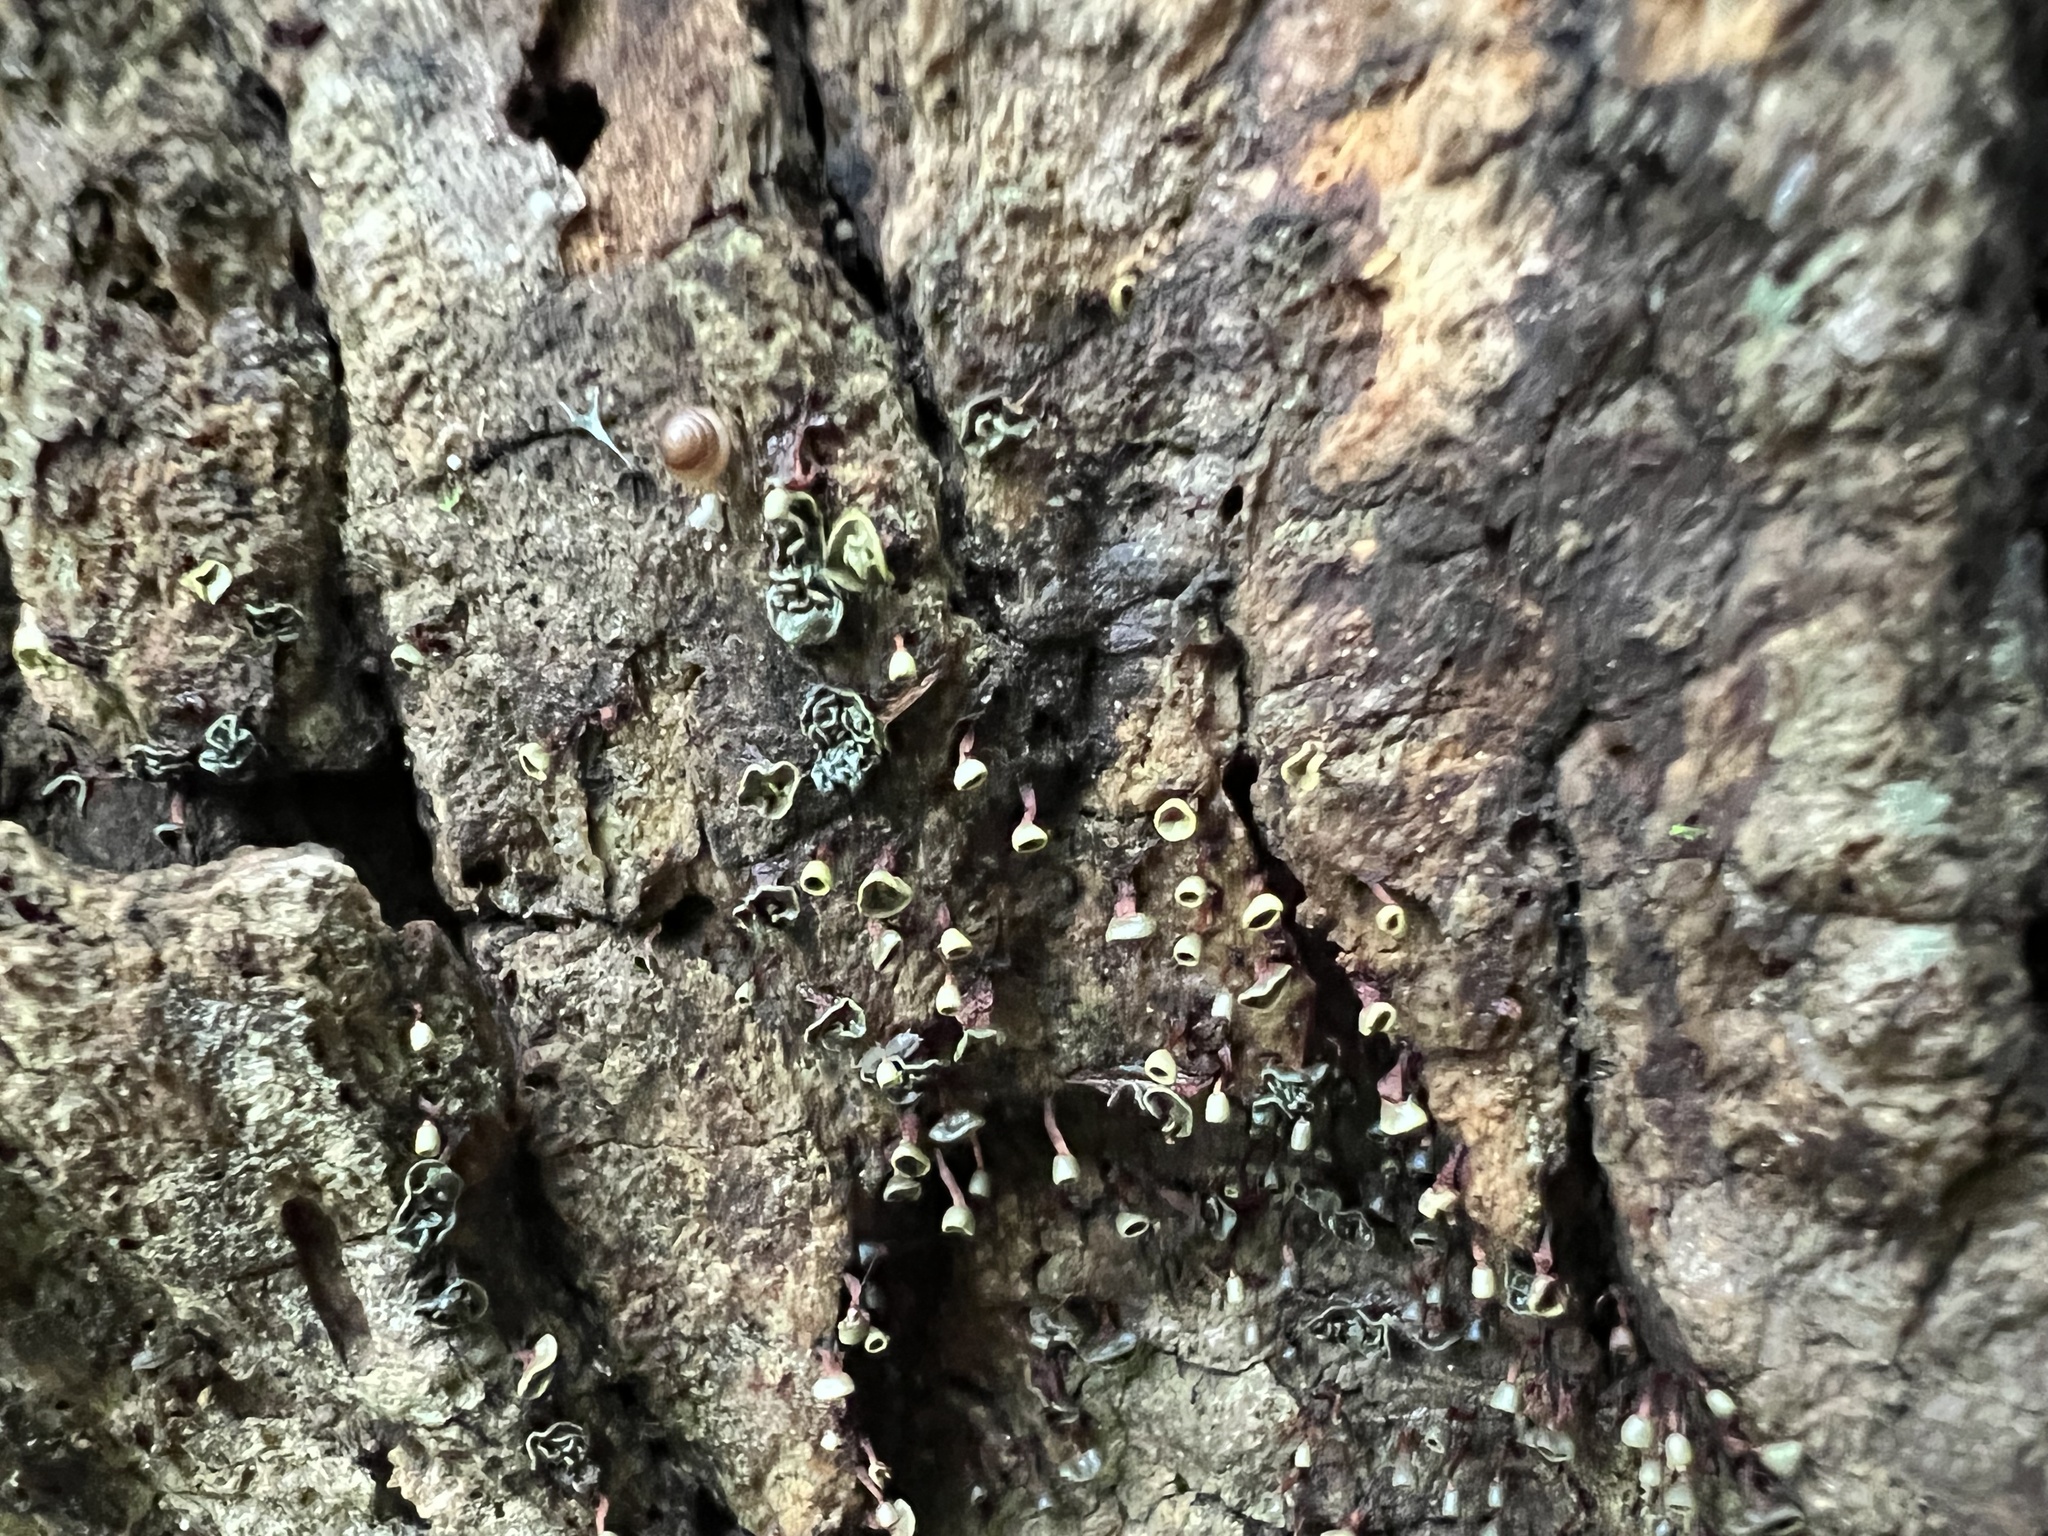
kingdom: Protozoa
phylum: Mycetozoa
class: Myxomycetes
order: Physarales
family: Physaraceae
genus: Physarella
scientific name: Physarella oblonga
